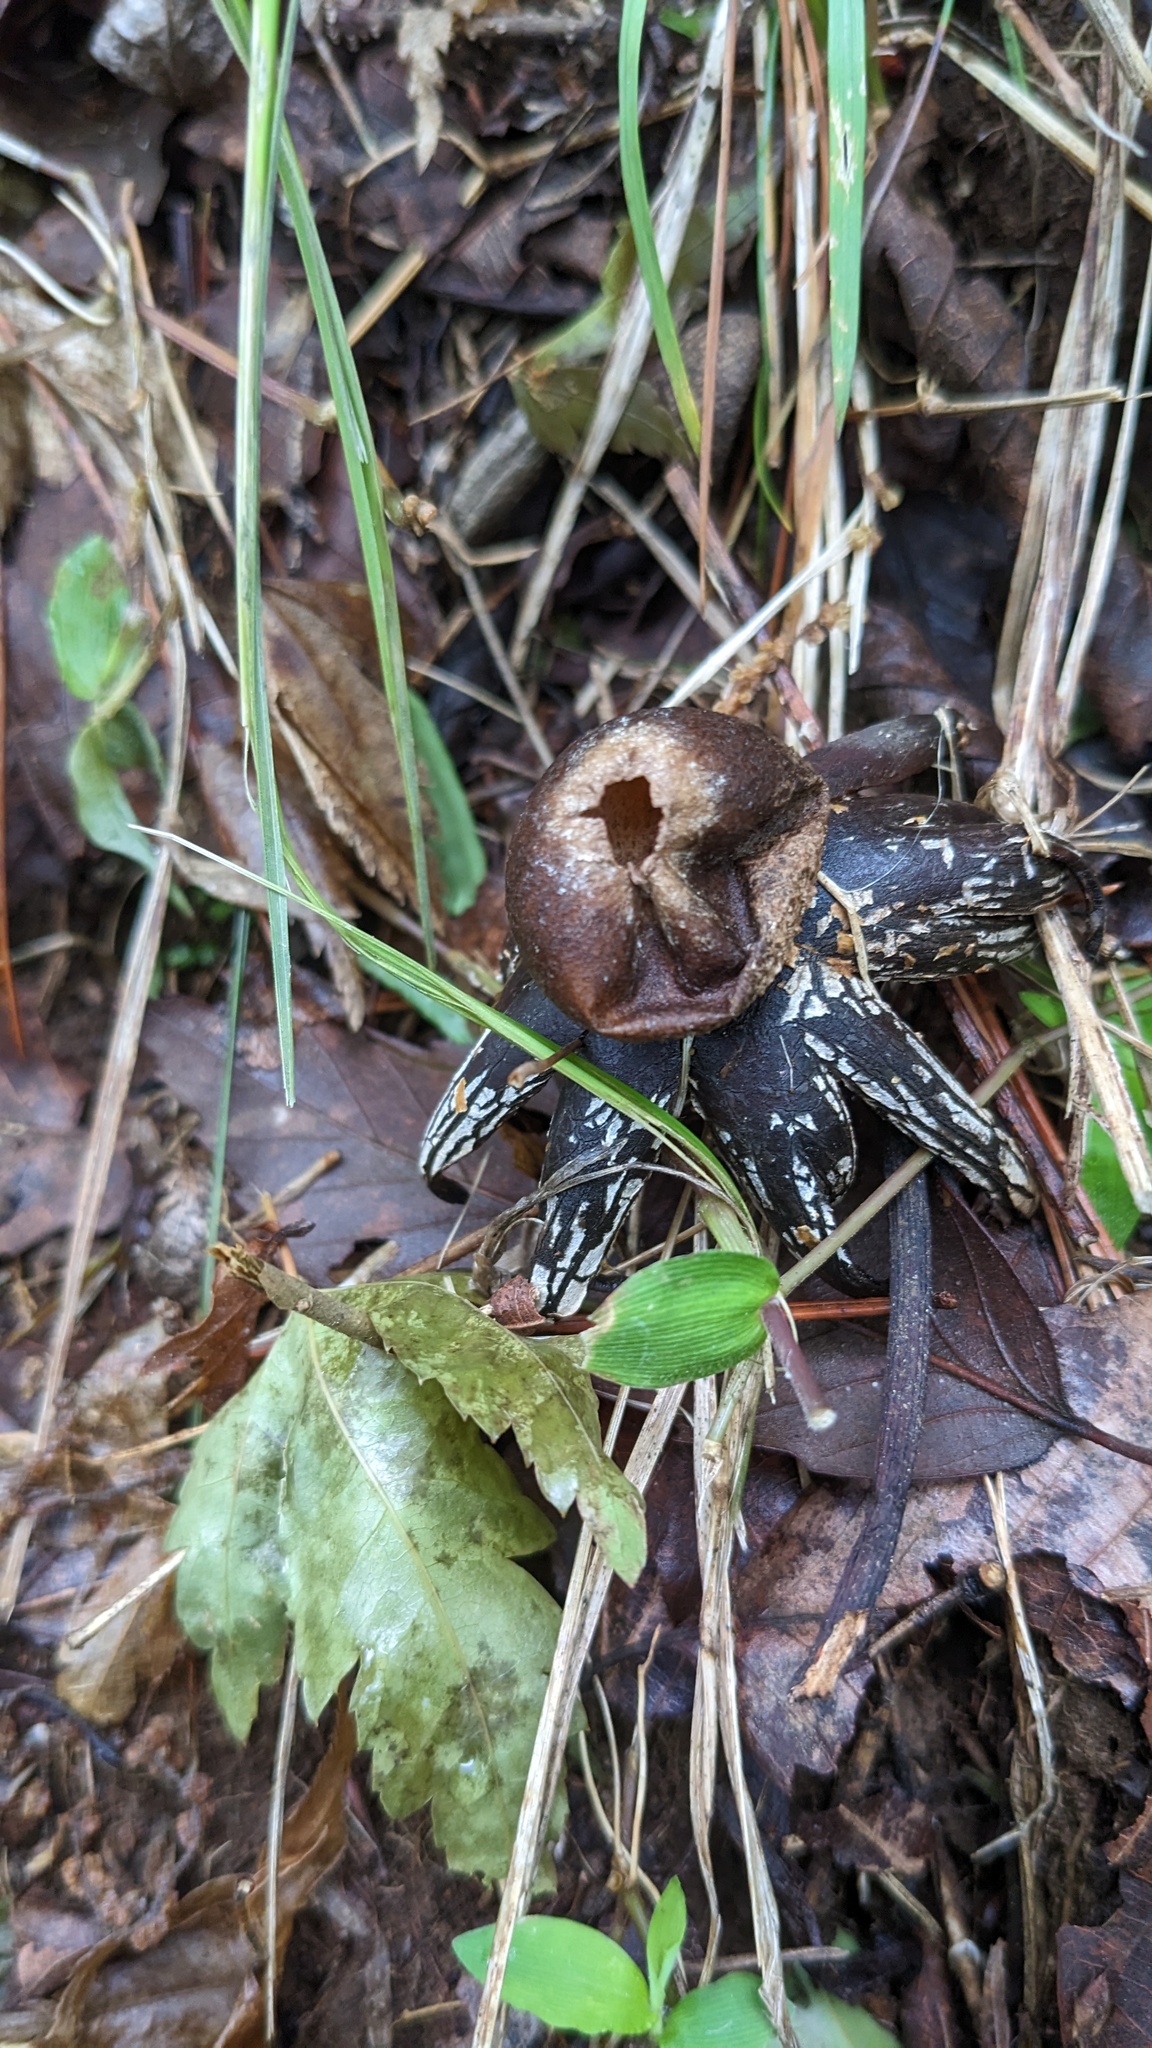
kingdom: Fungi
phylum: Basidiomycota
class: Agaricomycetes
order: Boletales
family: Diplocystidiaceae
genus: Astraeus
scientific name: Astraeus hygrometricus
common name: Barometer earthstar
